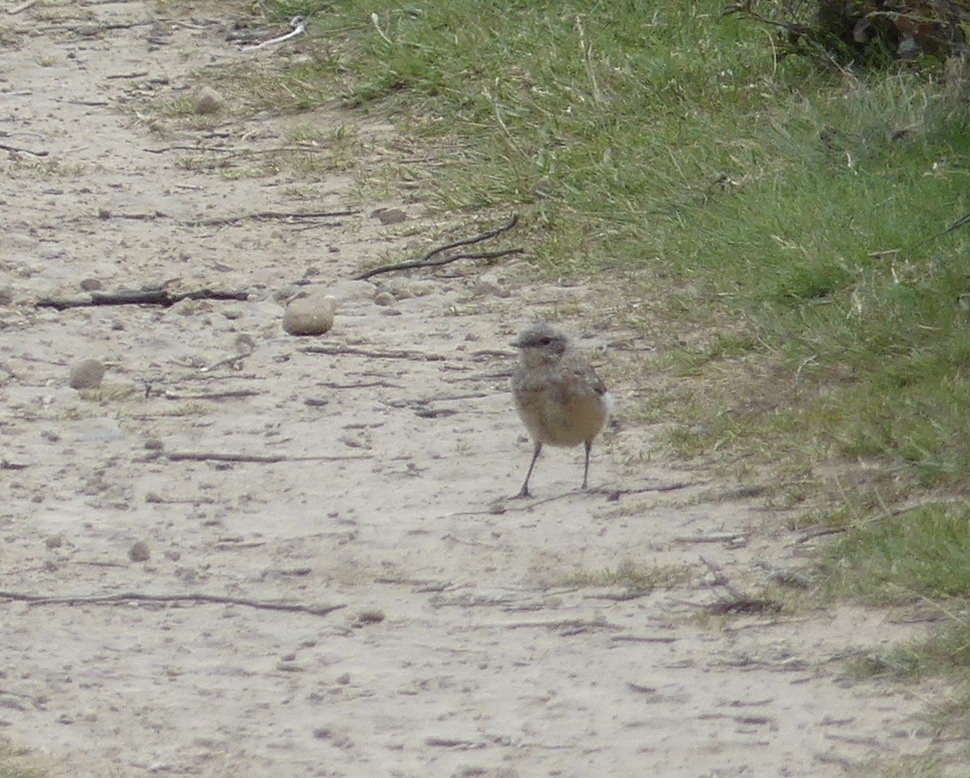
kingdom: Animalia
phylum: Chordata
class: Aves
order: Passeriformes
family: Muscicapidae
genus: Oenanthe
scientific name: Oenanthe oenanthe
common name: Northern wheatear
